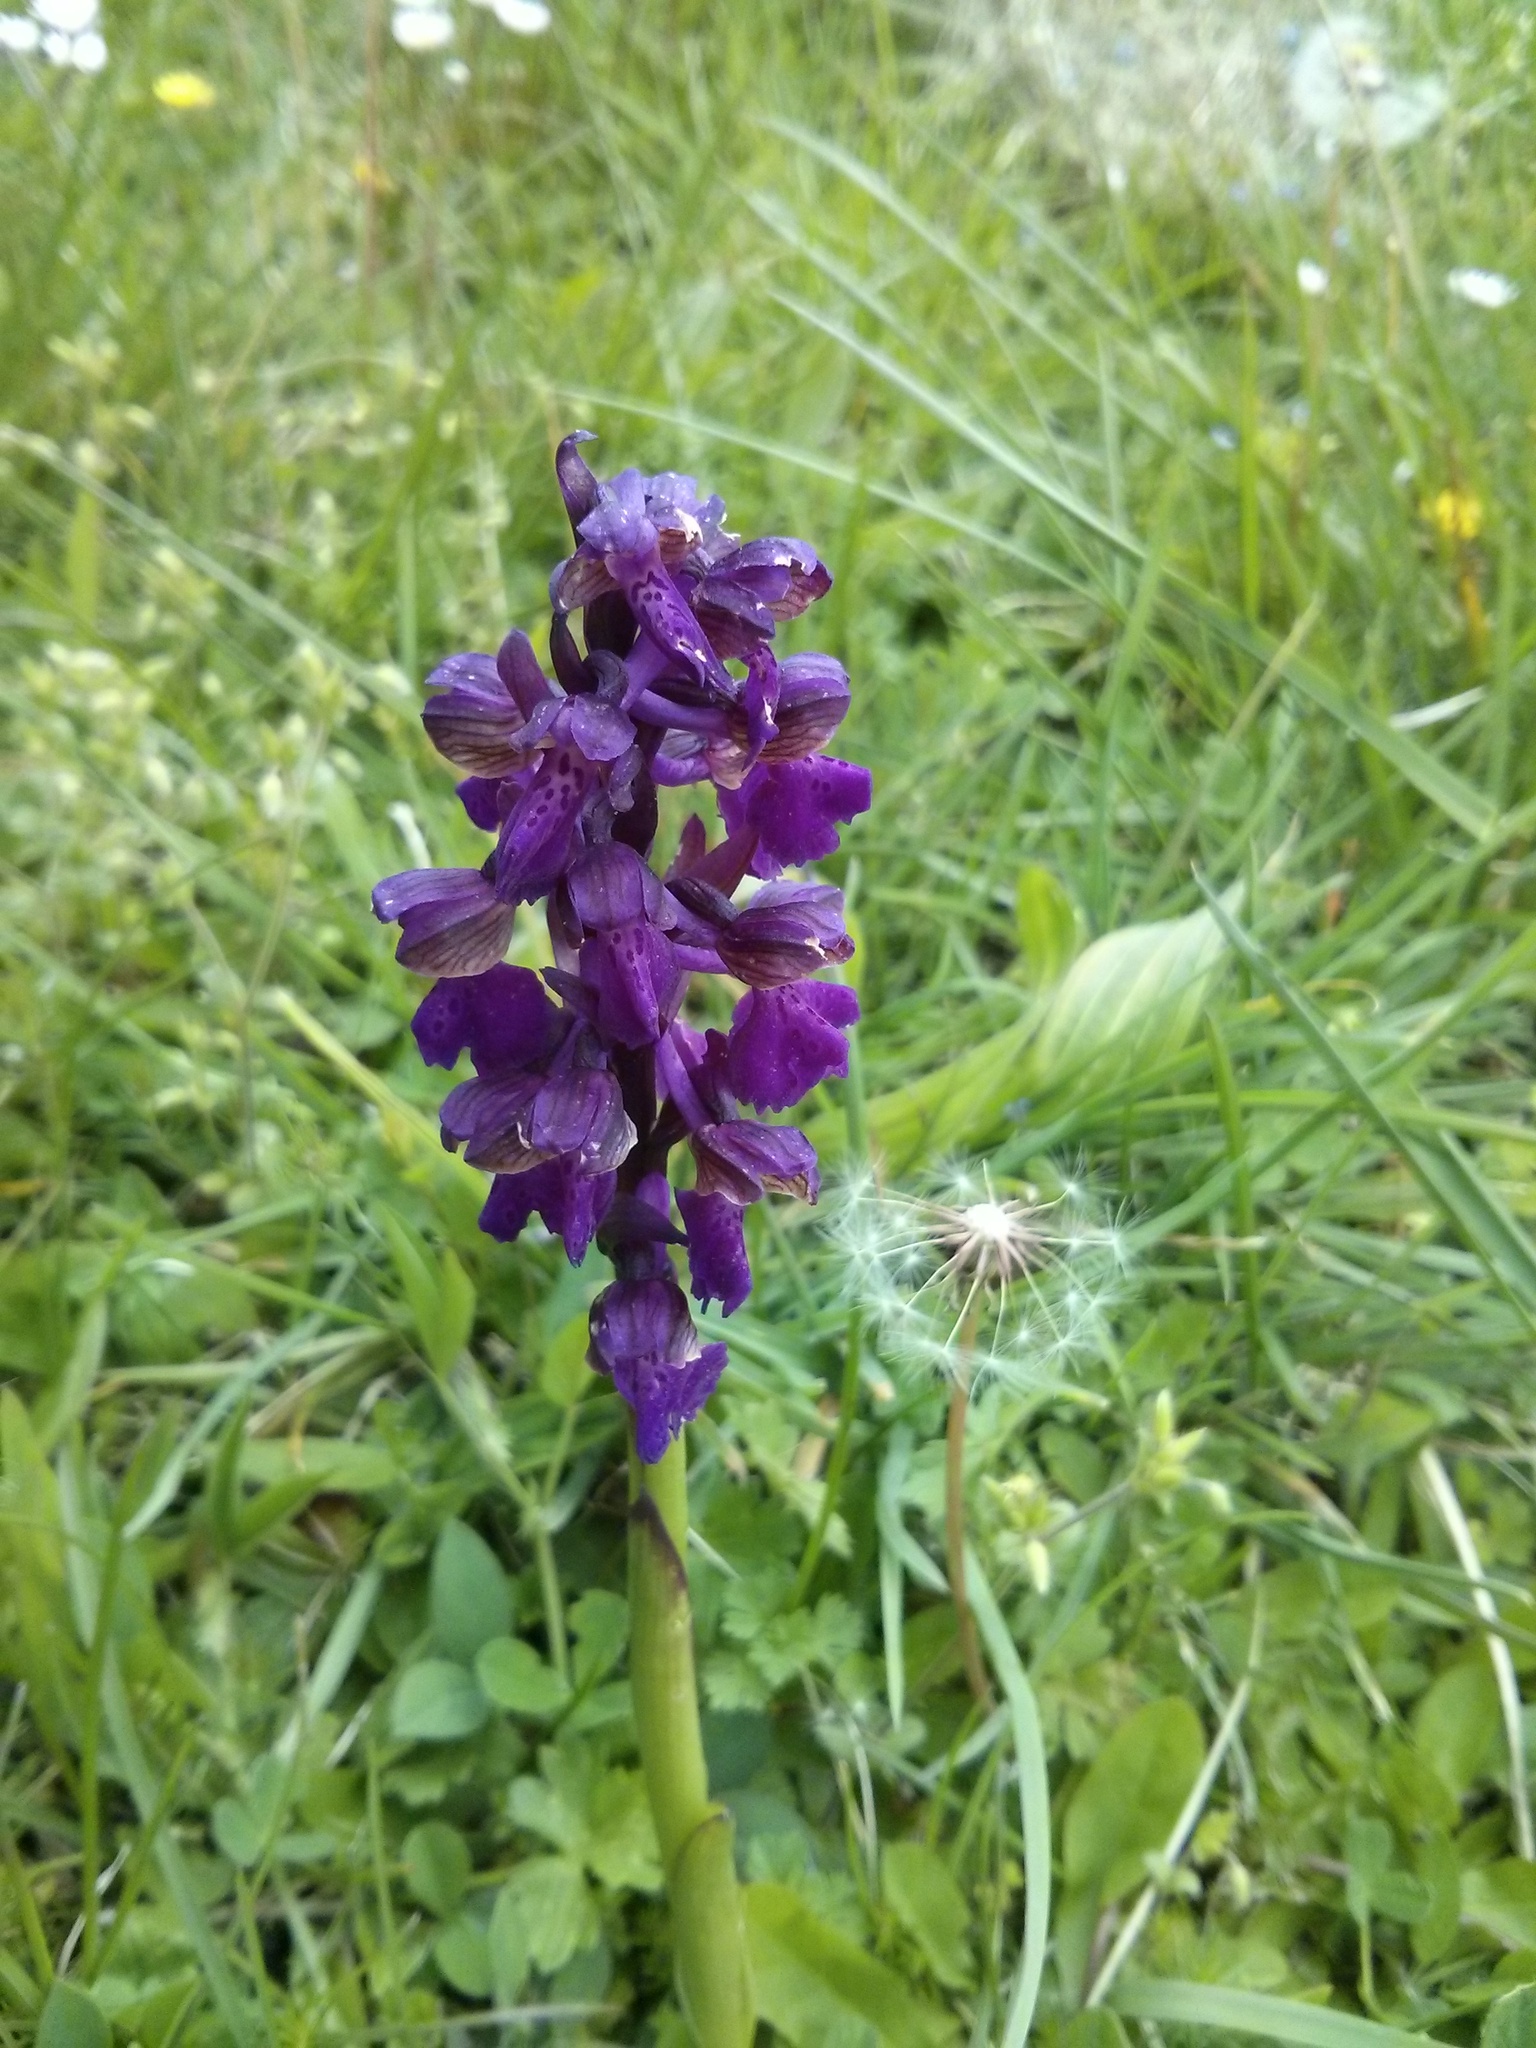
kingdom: Plantae
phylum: Tracheophyta
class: Liliopsida
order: Asparagales
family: Orchidaceae
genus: Anacamptis
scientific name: Anacamptis morio
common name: Green-winged orchid
